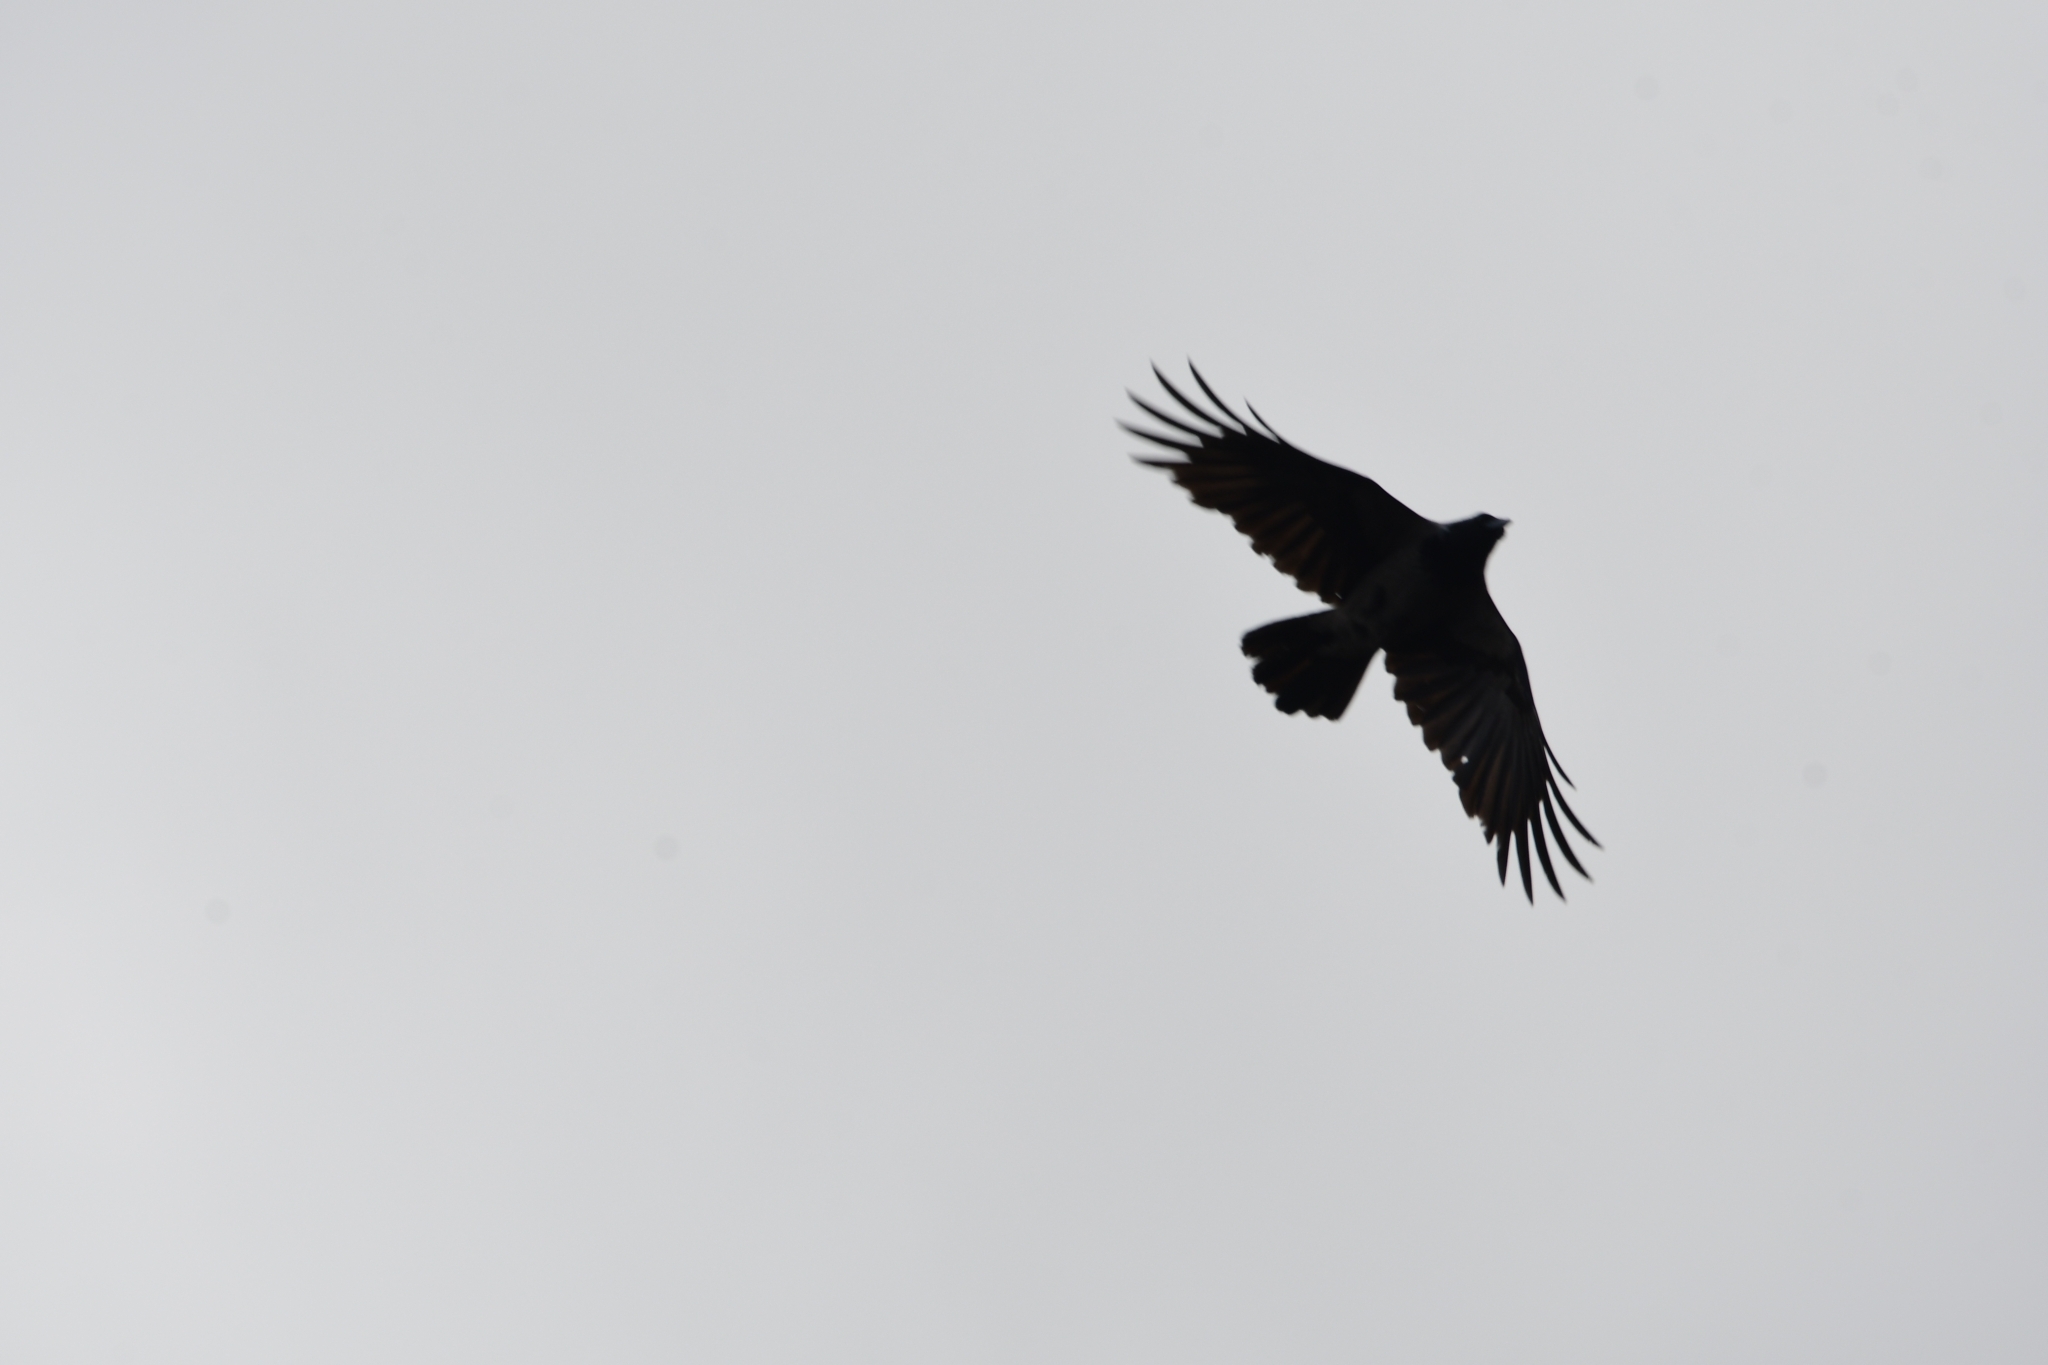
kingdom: Animalia
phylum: Chordata
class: Aves
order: Passeriformes
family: Corvidae
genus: Corvus
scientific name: Corvus cornix
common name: Hooded crow
